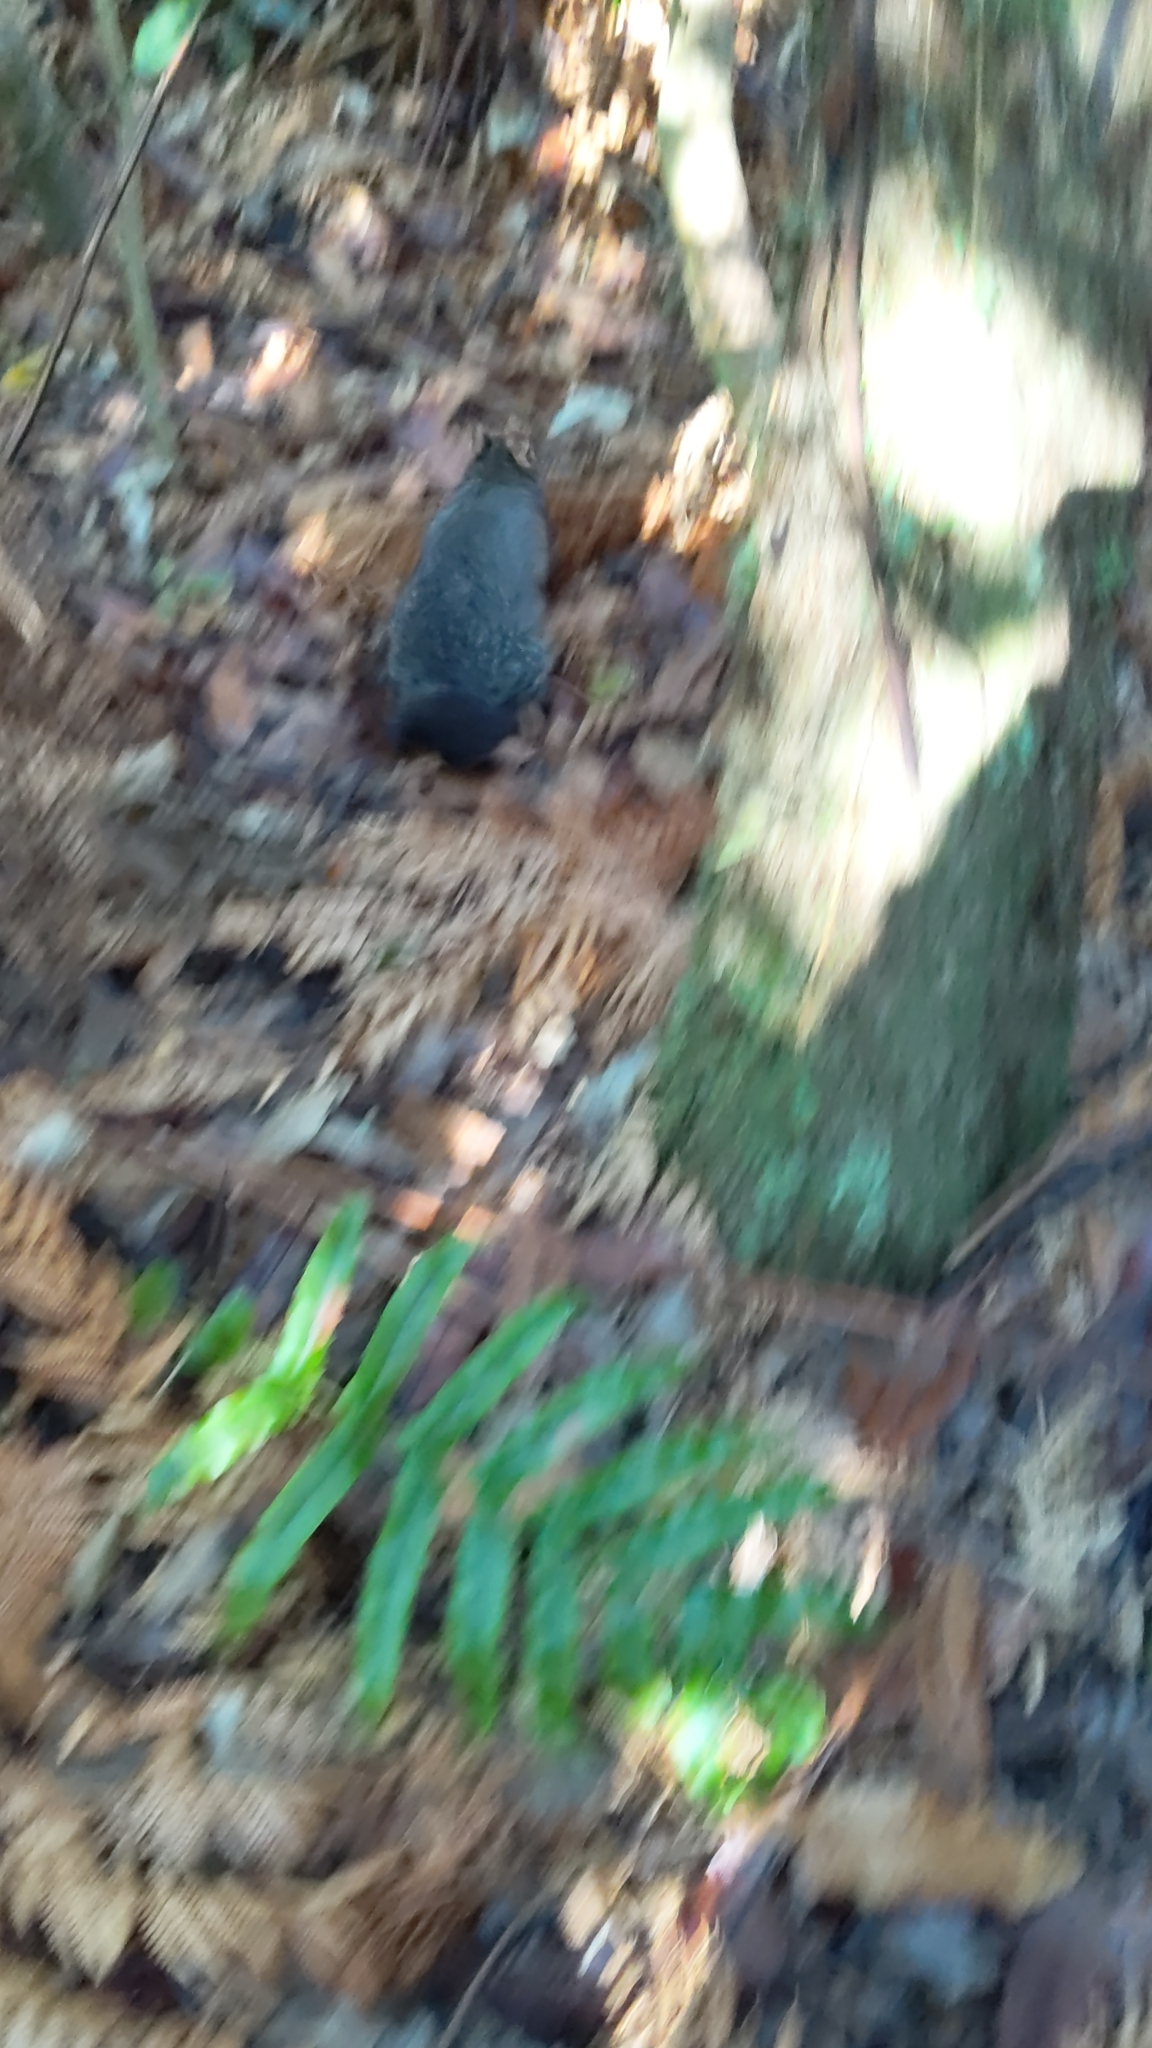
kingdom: Animalia
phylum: Chordata
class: Mammalia
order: Diprotodontia
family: Phalangeridae
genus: Trichosurus
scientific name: Trichosurus vulpecula
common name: Common brushtail
